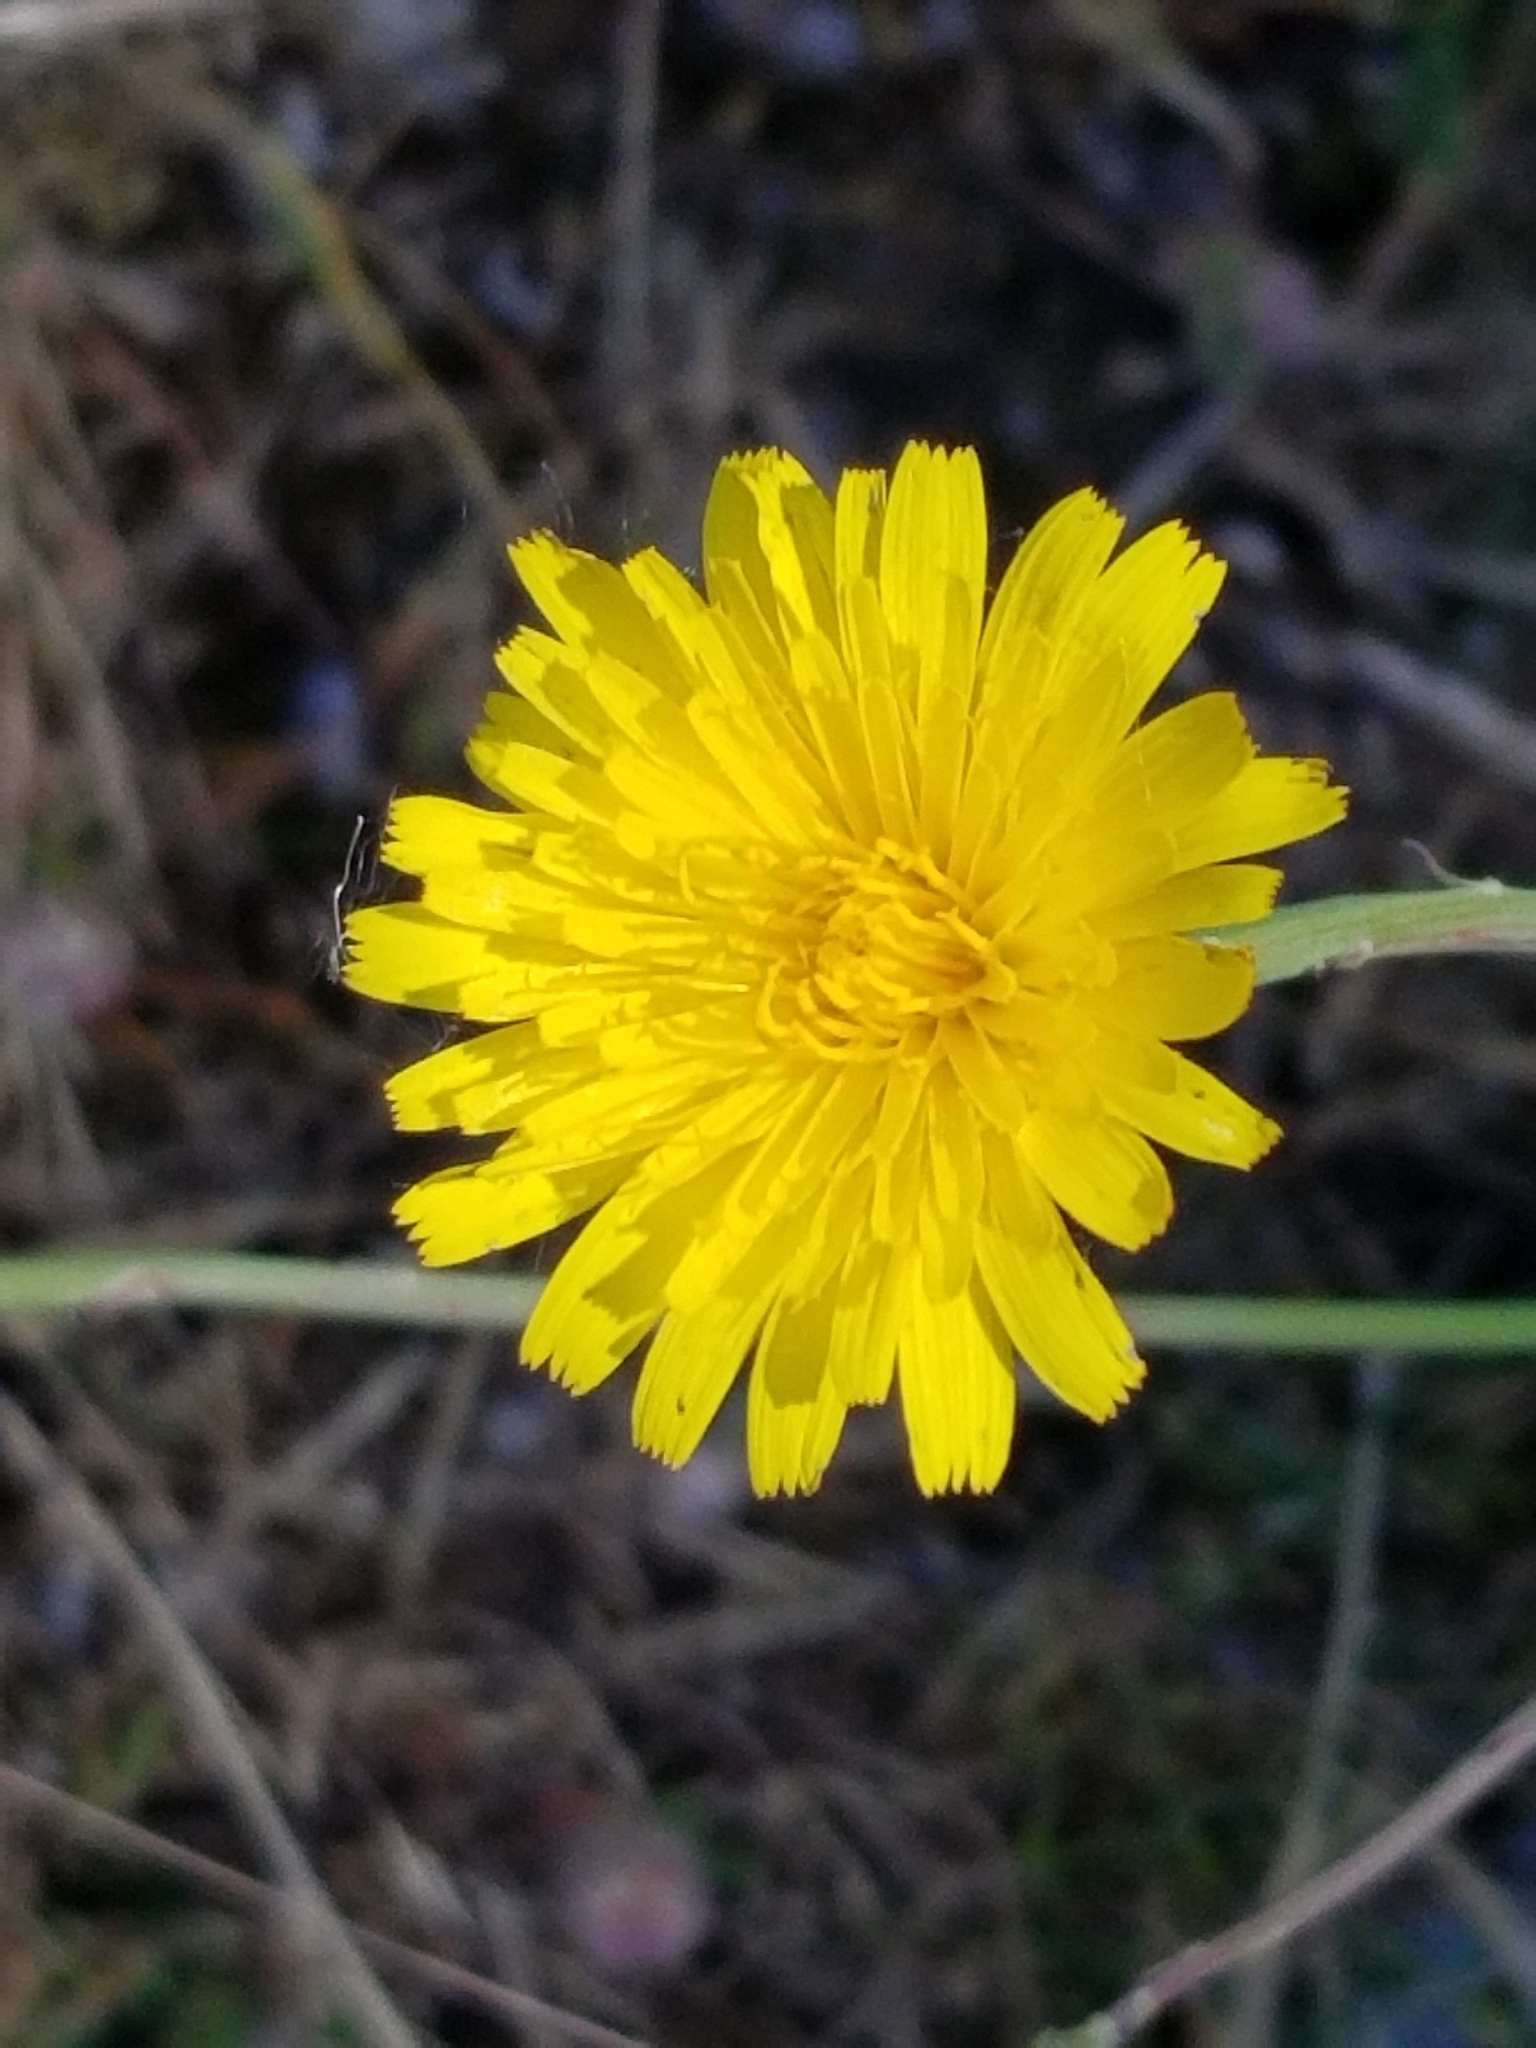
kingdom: Plantae
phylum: Tracheophyta
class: Magnoliopsida
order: Asterales
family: Asteraceae
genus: Hypochaeris
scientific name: Hypochaeris radicata
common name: Flatweed
